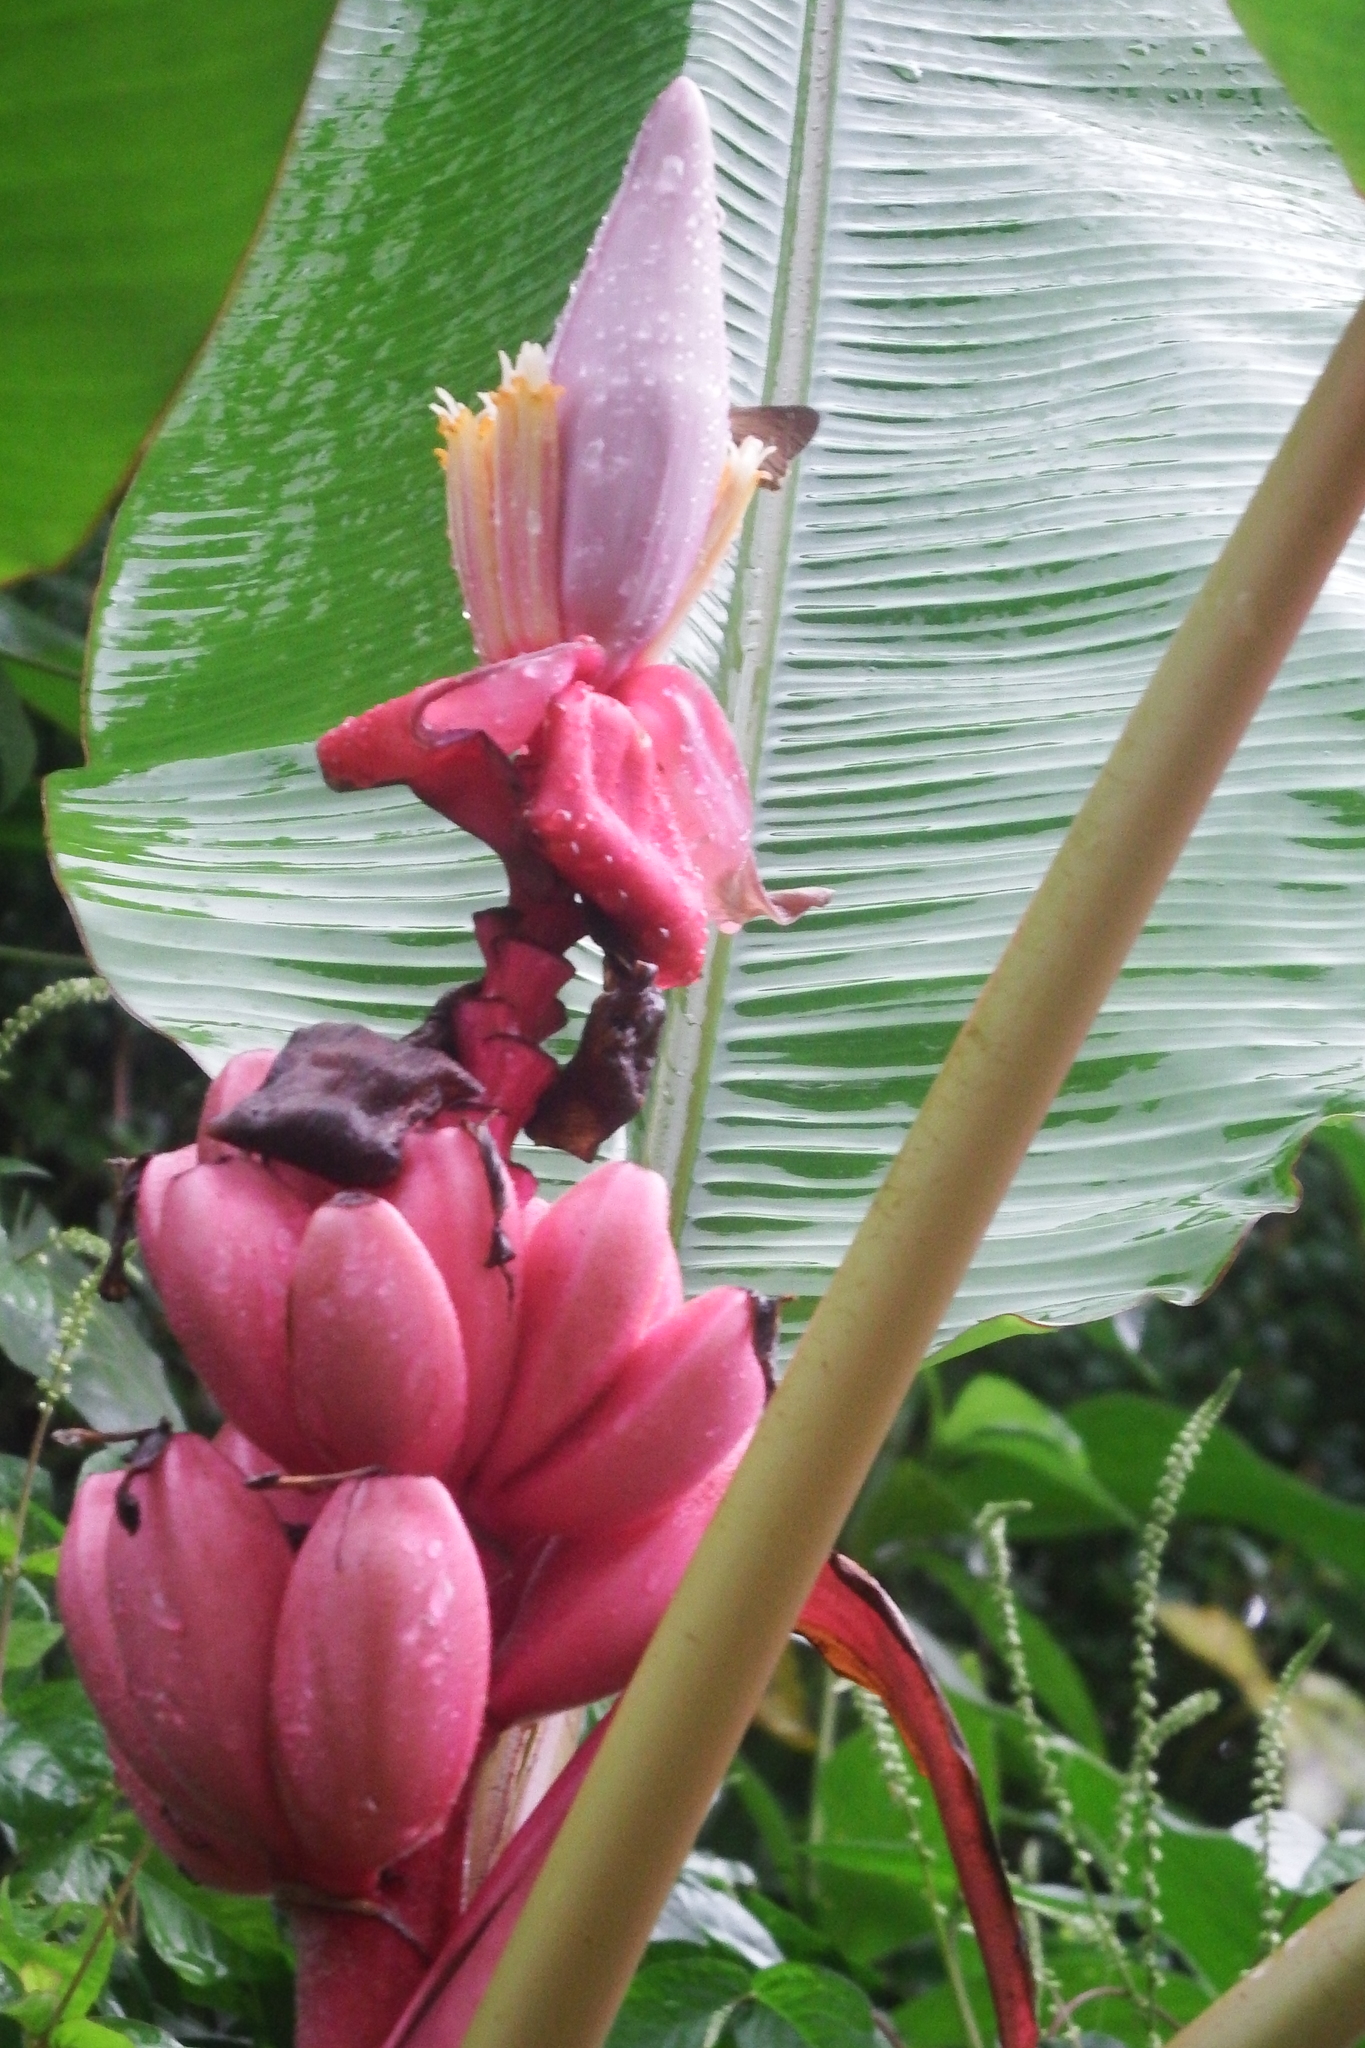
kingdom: Plantae
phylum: Tracheophyta
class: Liliopsida
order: Zingiberales
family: Musaceae
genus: Musa
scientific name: Musa velutina
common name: Pink velvet banana
